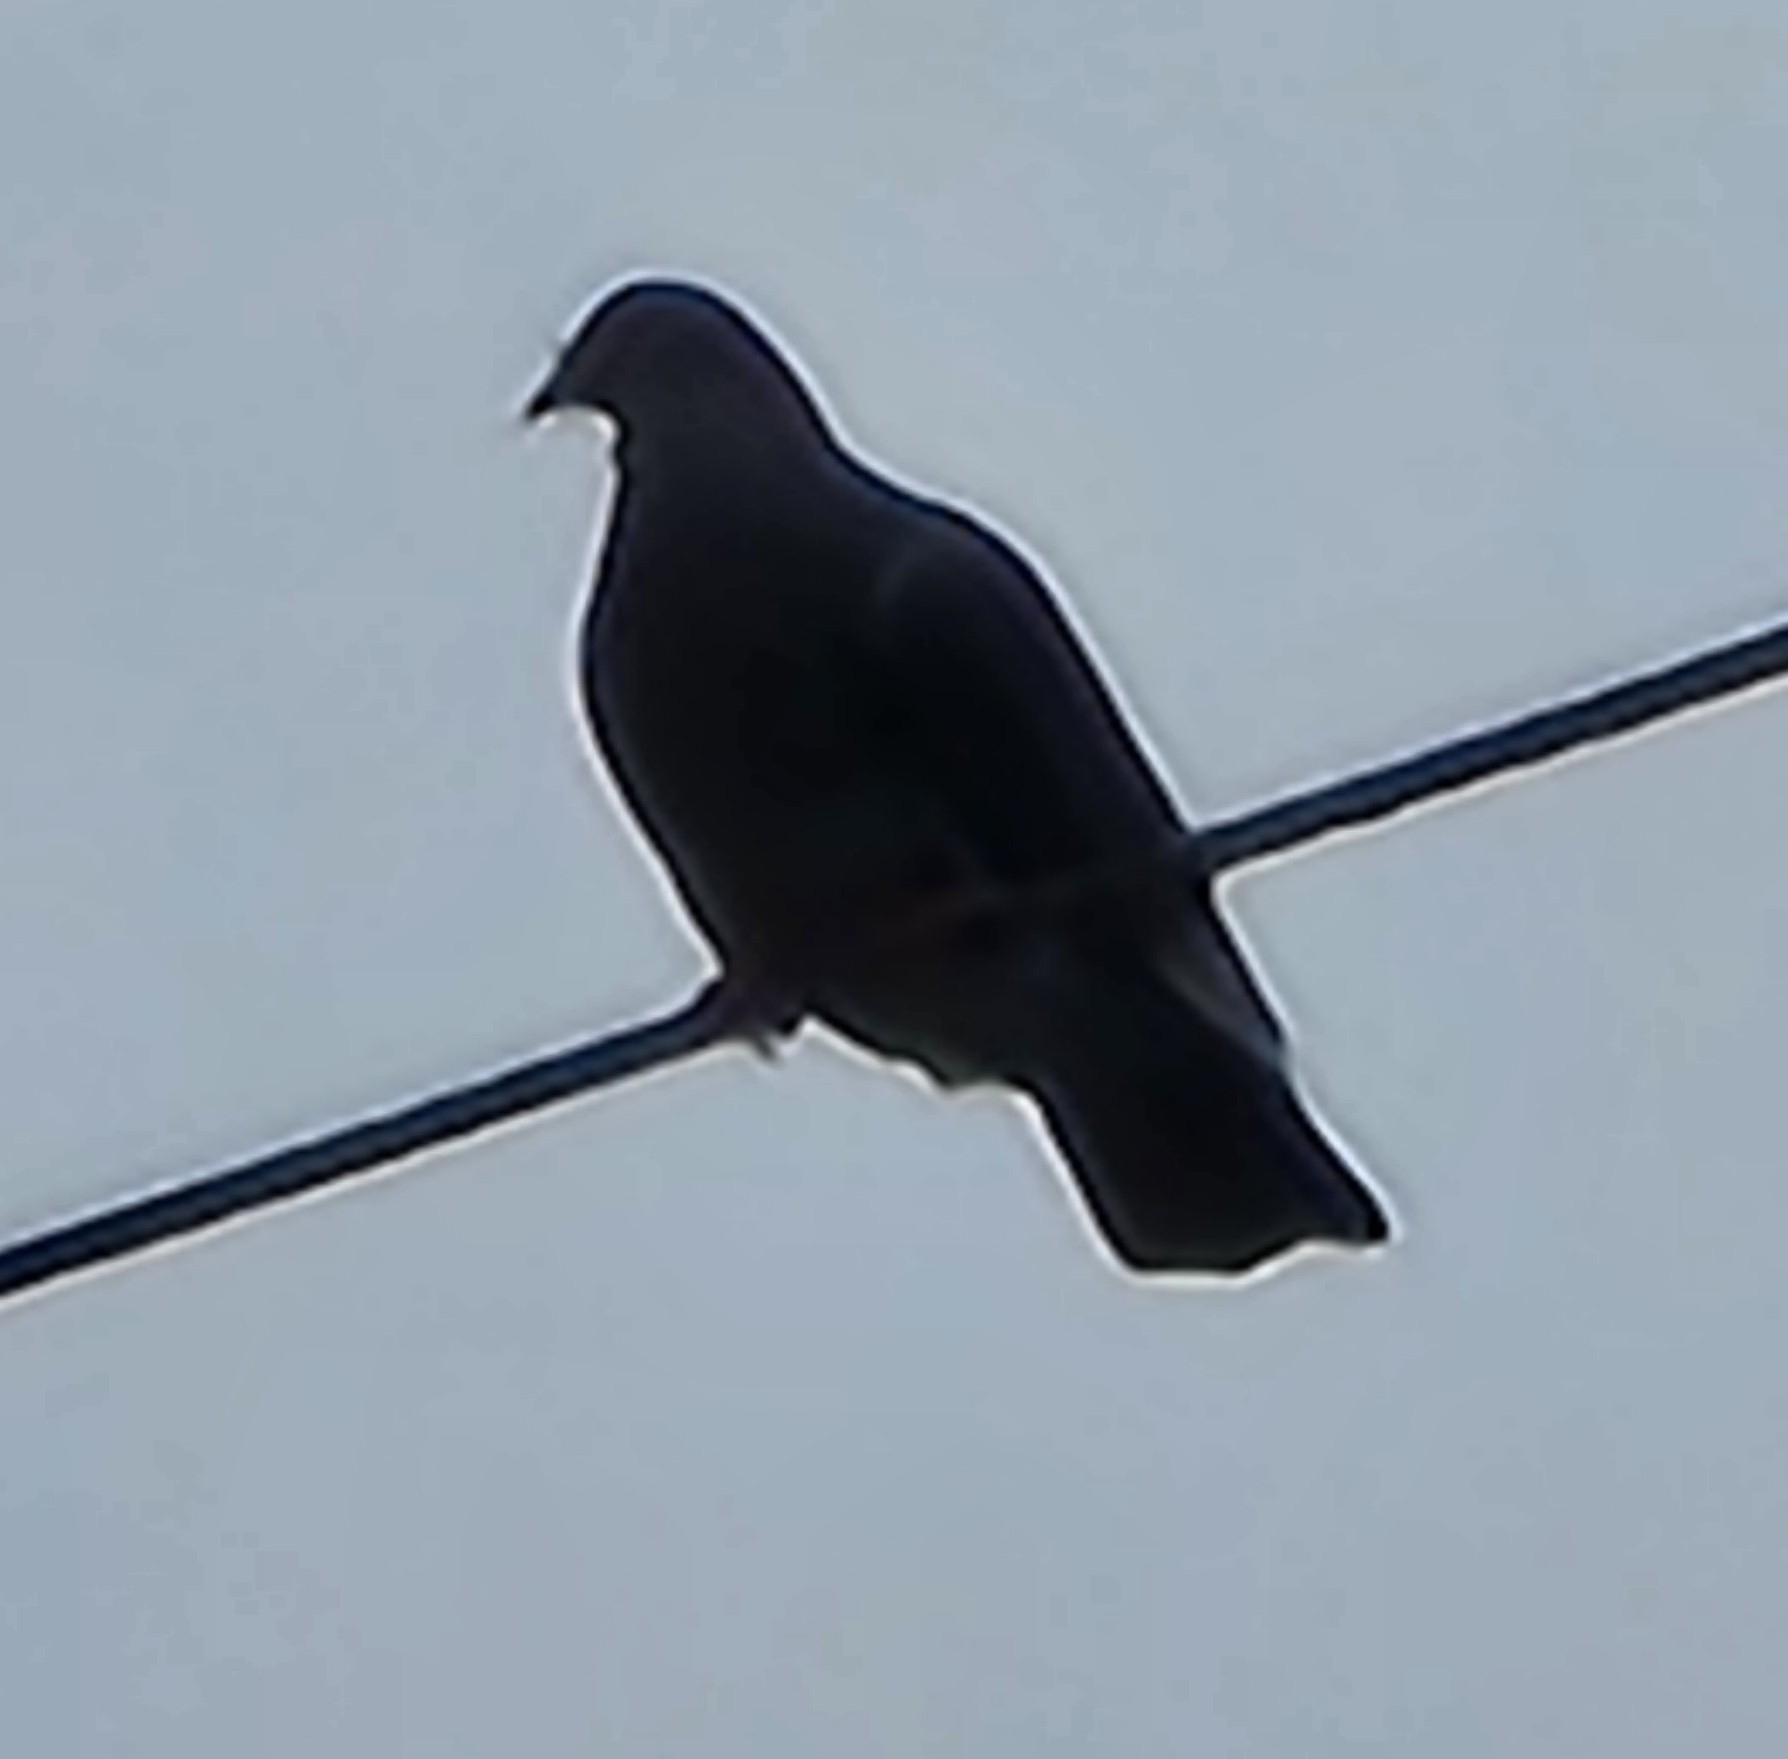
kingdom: Animalia
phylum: Chordata
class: Aves
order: Columbiformes
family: Columbidae
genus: Columba
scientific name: Columba livia
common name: Rock pigeon
